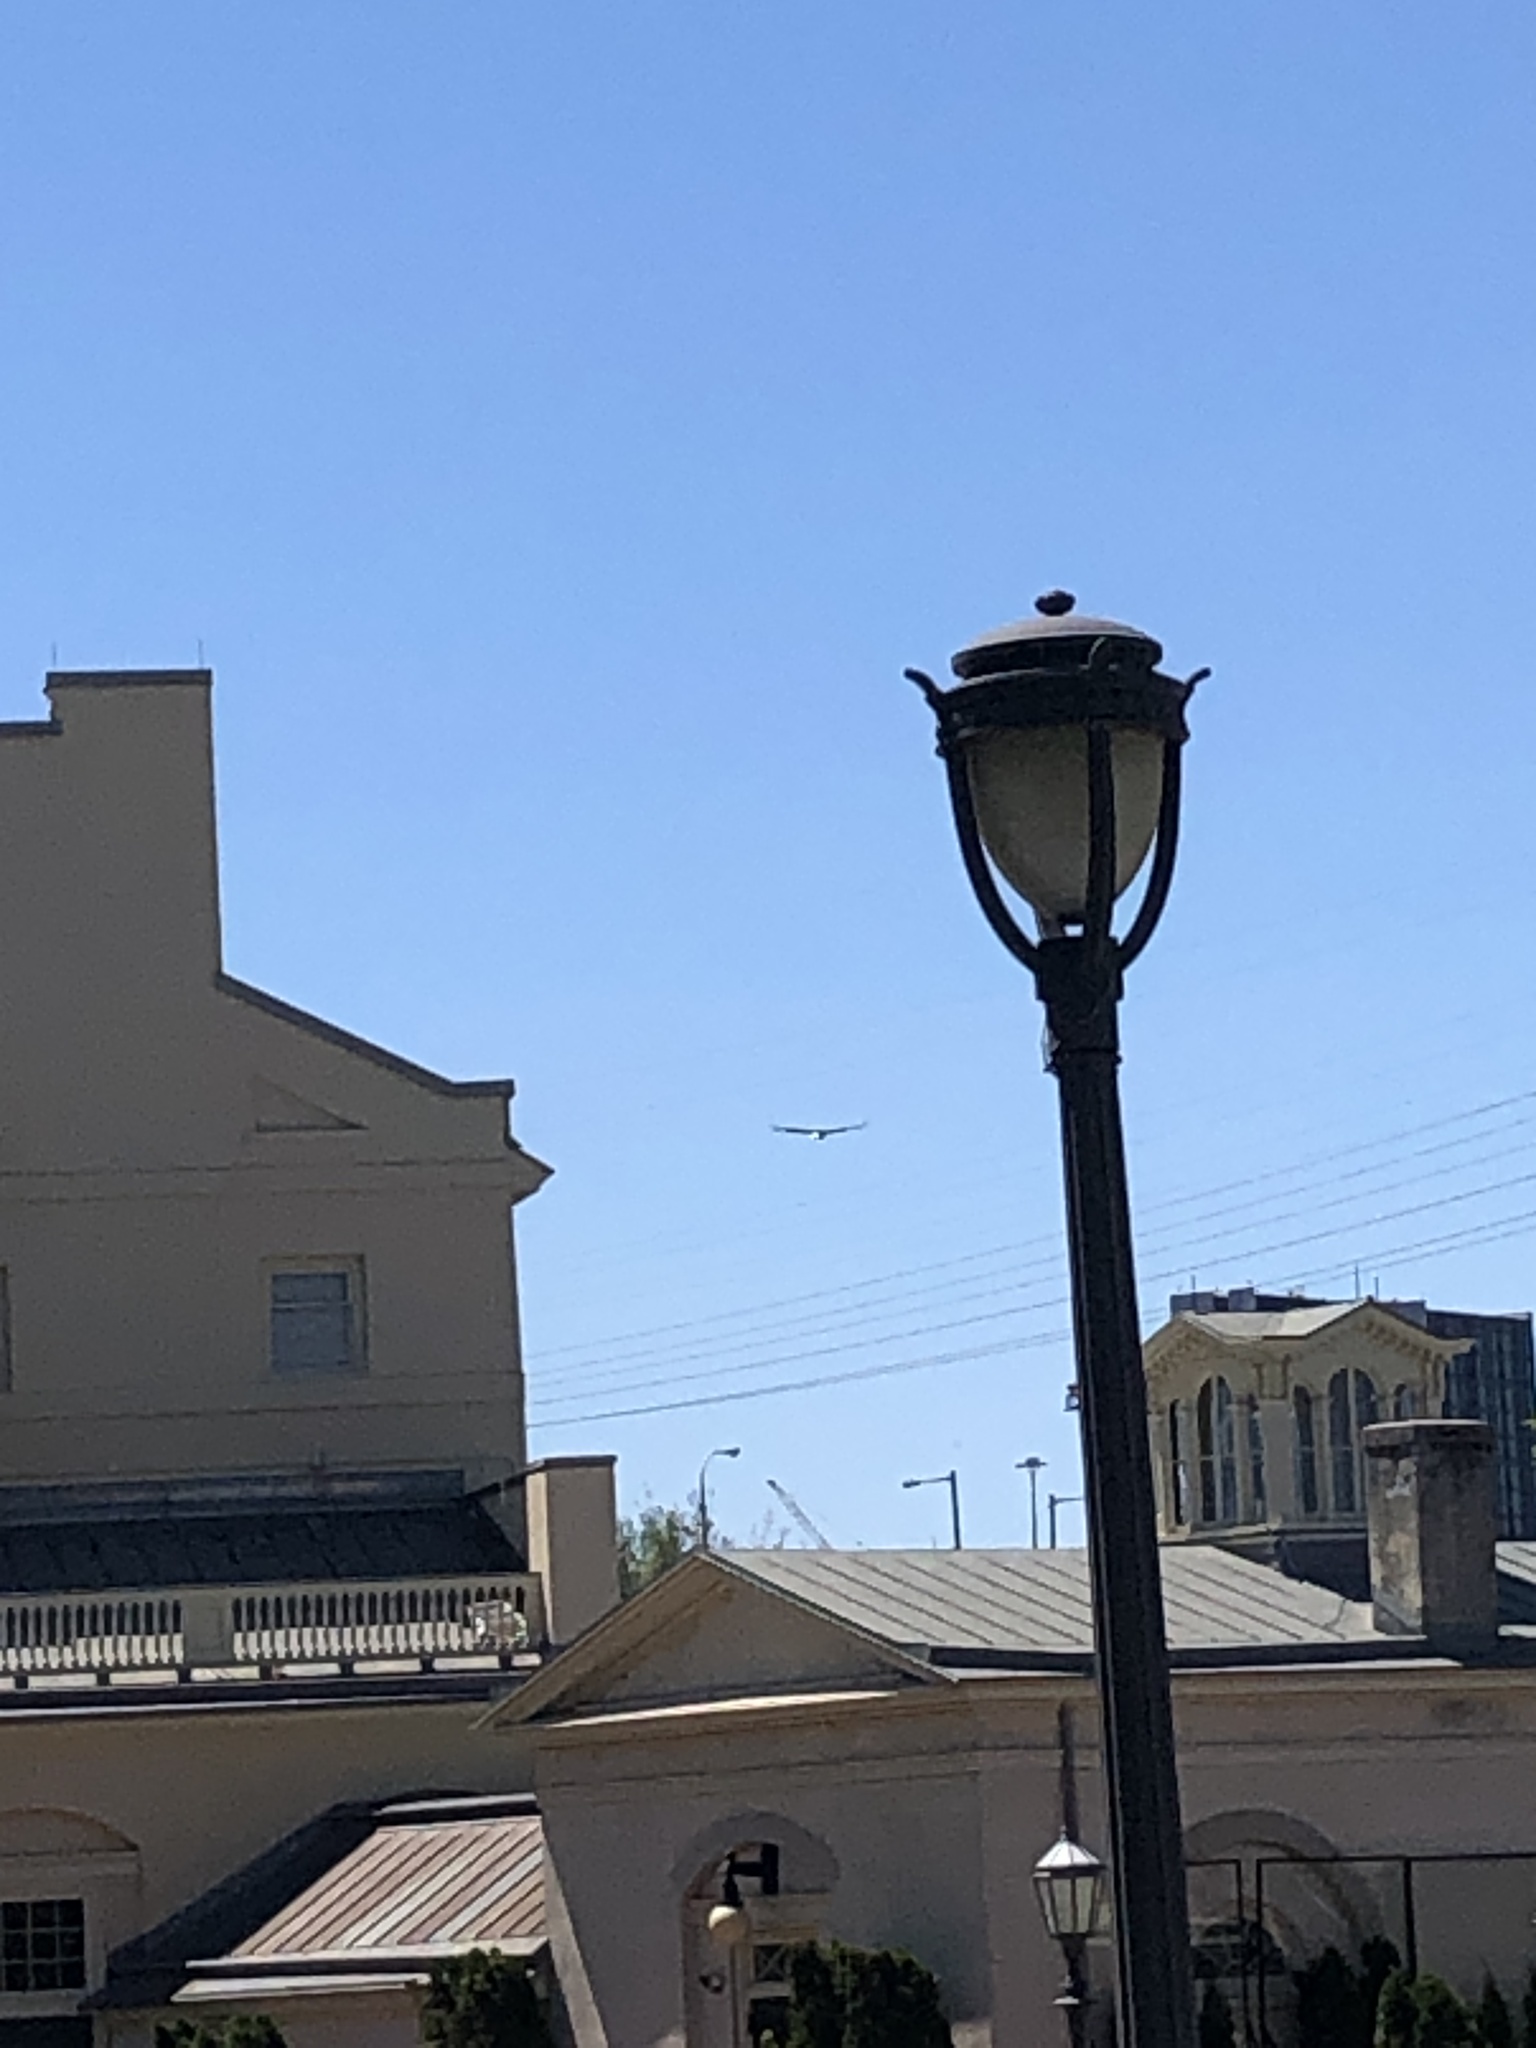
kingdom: Animalia
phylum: Chordata
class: Aves
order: Accipitriformes
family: Accipitridae
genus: Haliaeetus
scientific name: Haliaeetus leucocephalus
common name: Bald eagle
